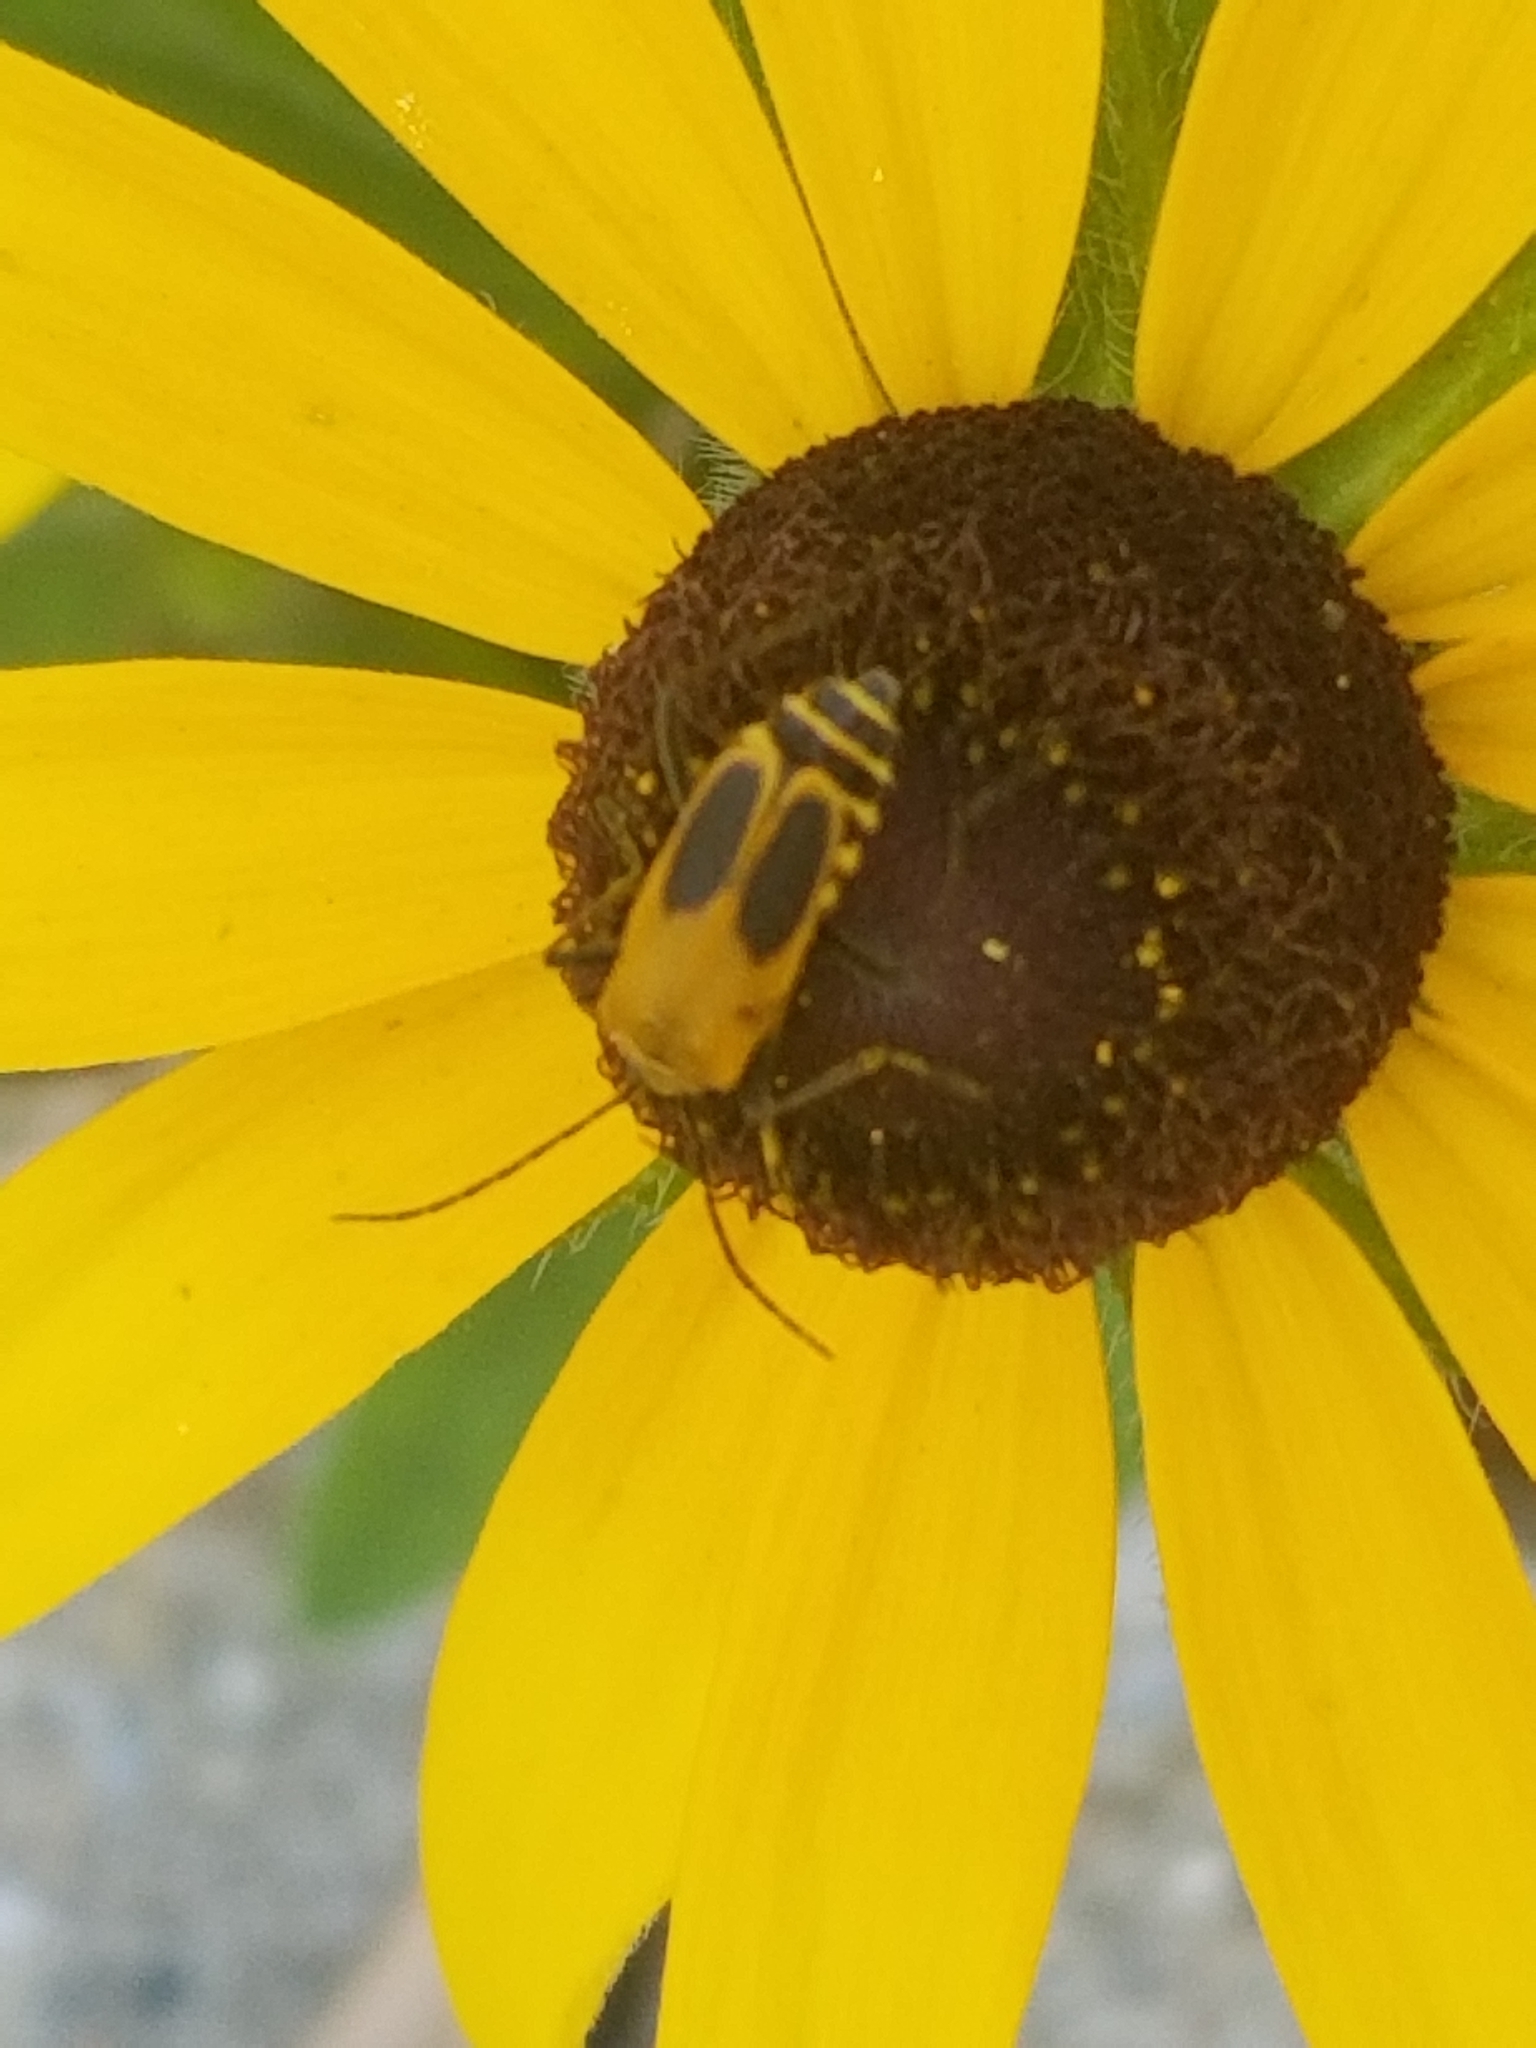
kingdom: Animalia
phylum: Arthropoda
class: Insecta
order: Coleoptera
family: Cantharidae
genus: Chauliognathus
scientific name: Chauliognathus pensylvanicus
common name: Goldenrod soldier beetle
